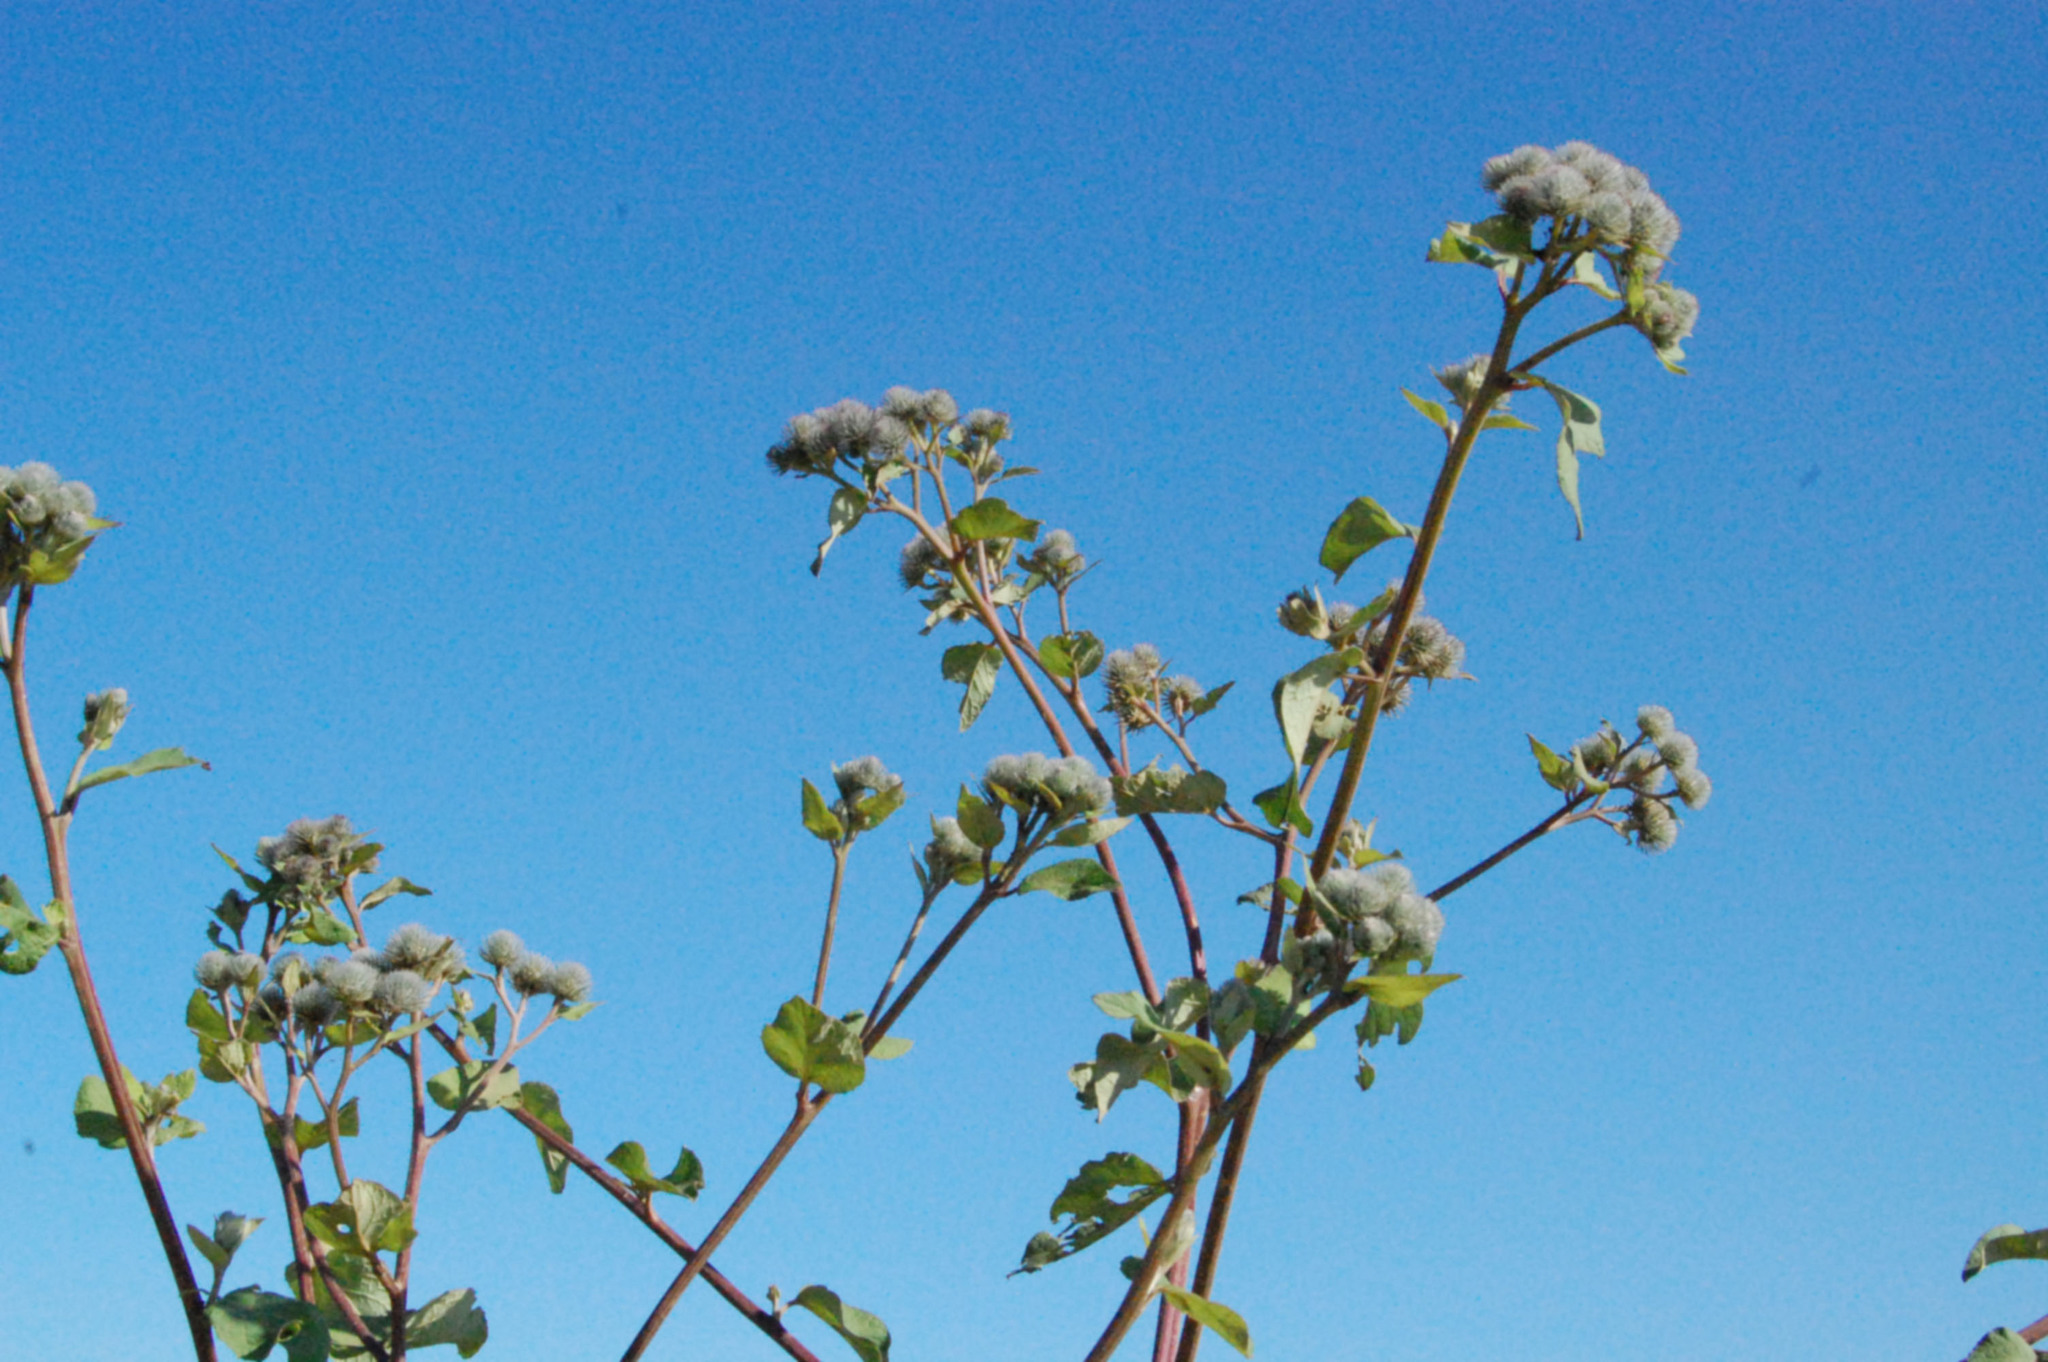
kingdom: Plantae
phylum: Tracheophyta
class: Magnoliopsida
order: Asterales
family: Asteraceae
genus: Arctium
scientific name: Arctium tomentosum
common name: Woolly burdock
